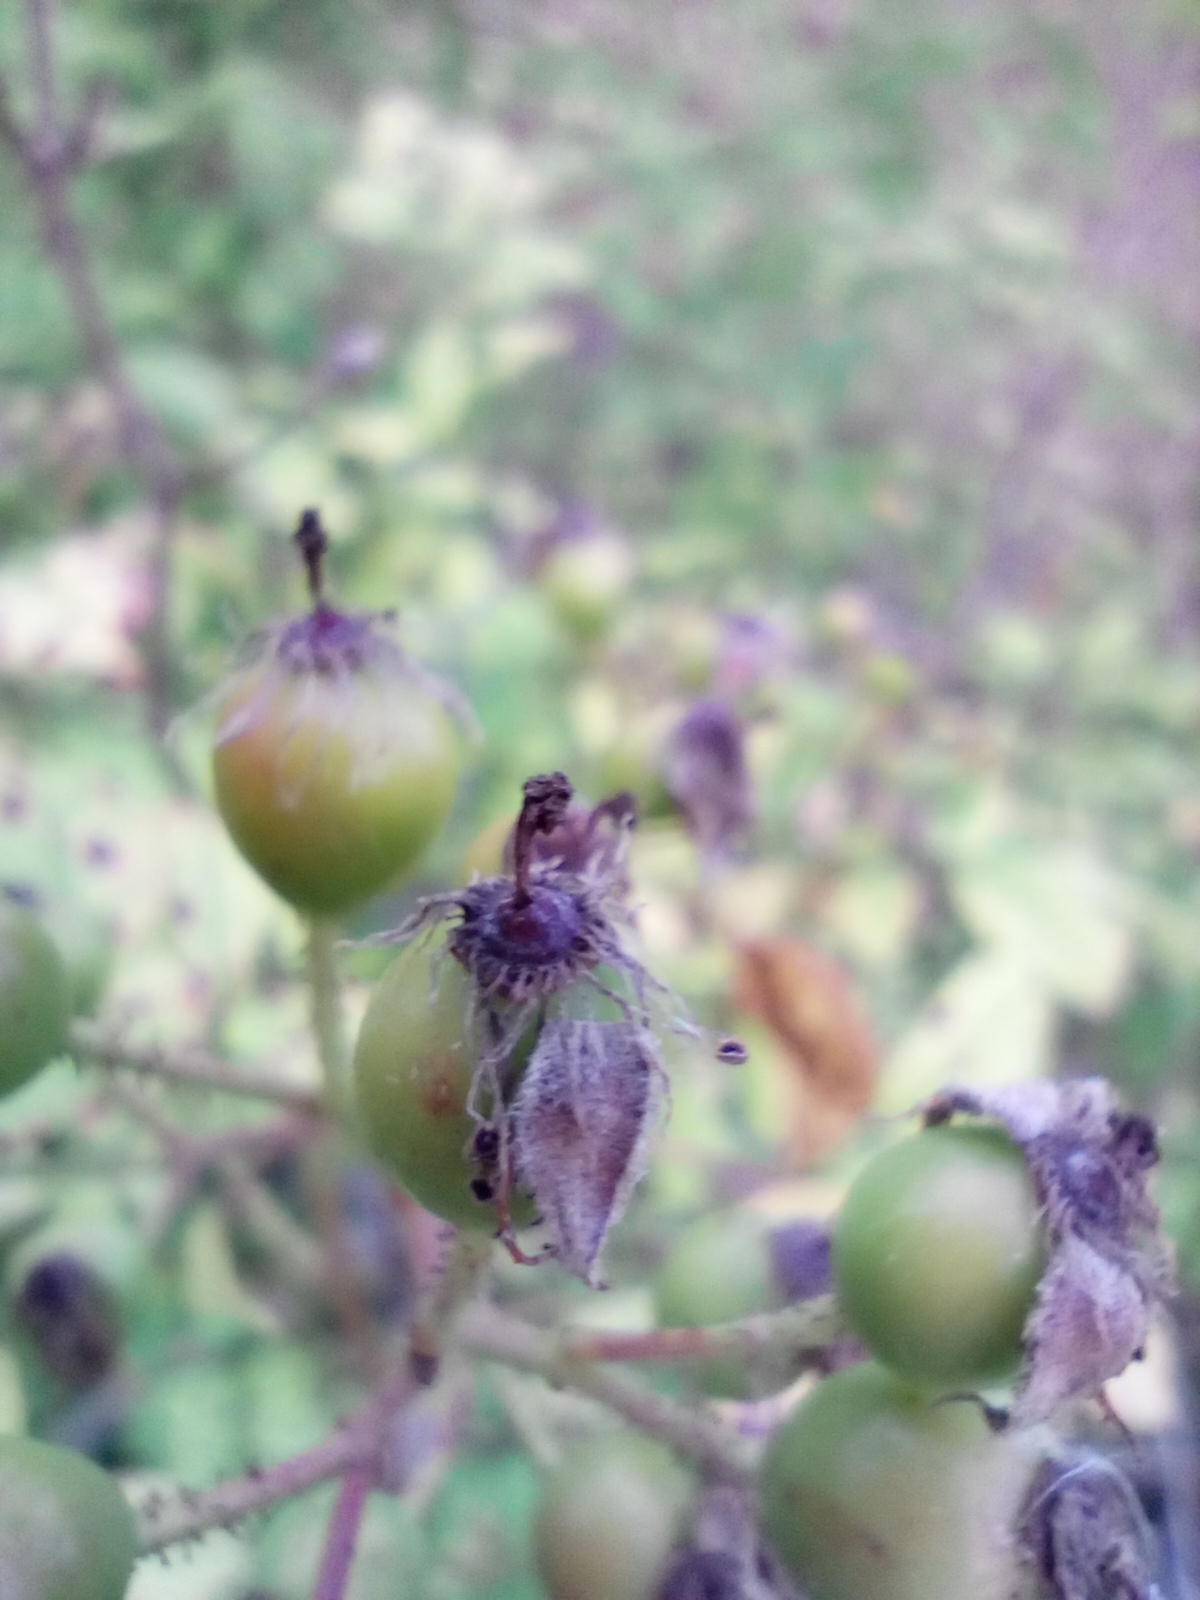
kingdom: Plantae
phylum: Tracheophyta
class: Magnoliopsida
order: Rosales
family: Rosaceae
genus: Rosa
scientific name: Rosa multiflora
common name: Multiflora rose
